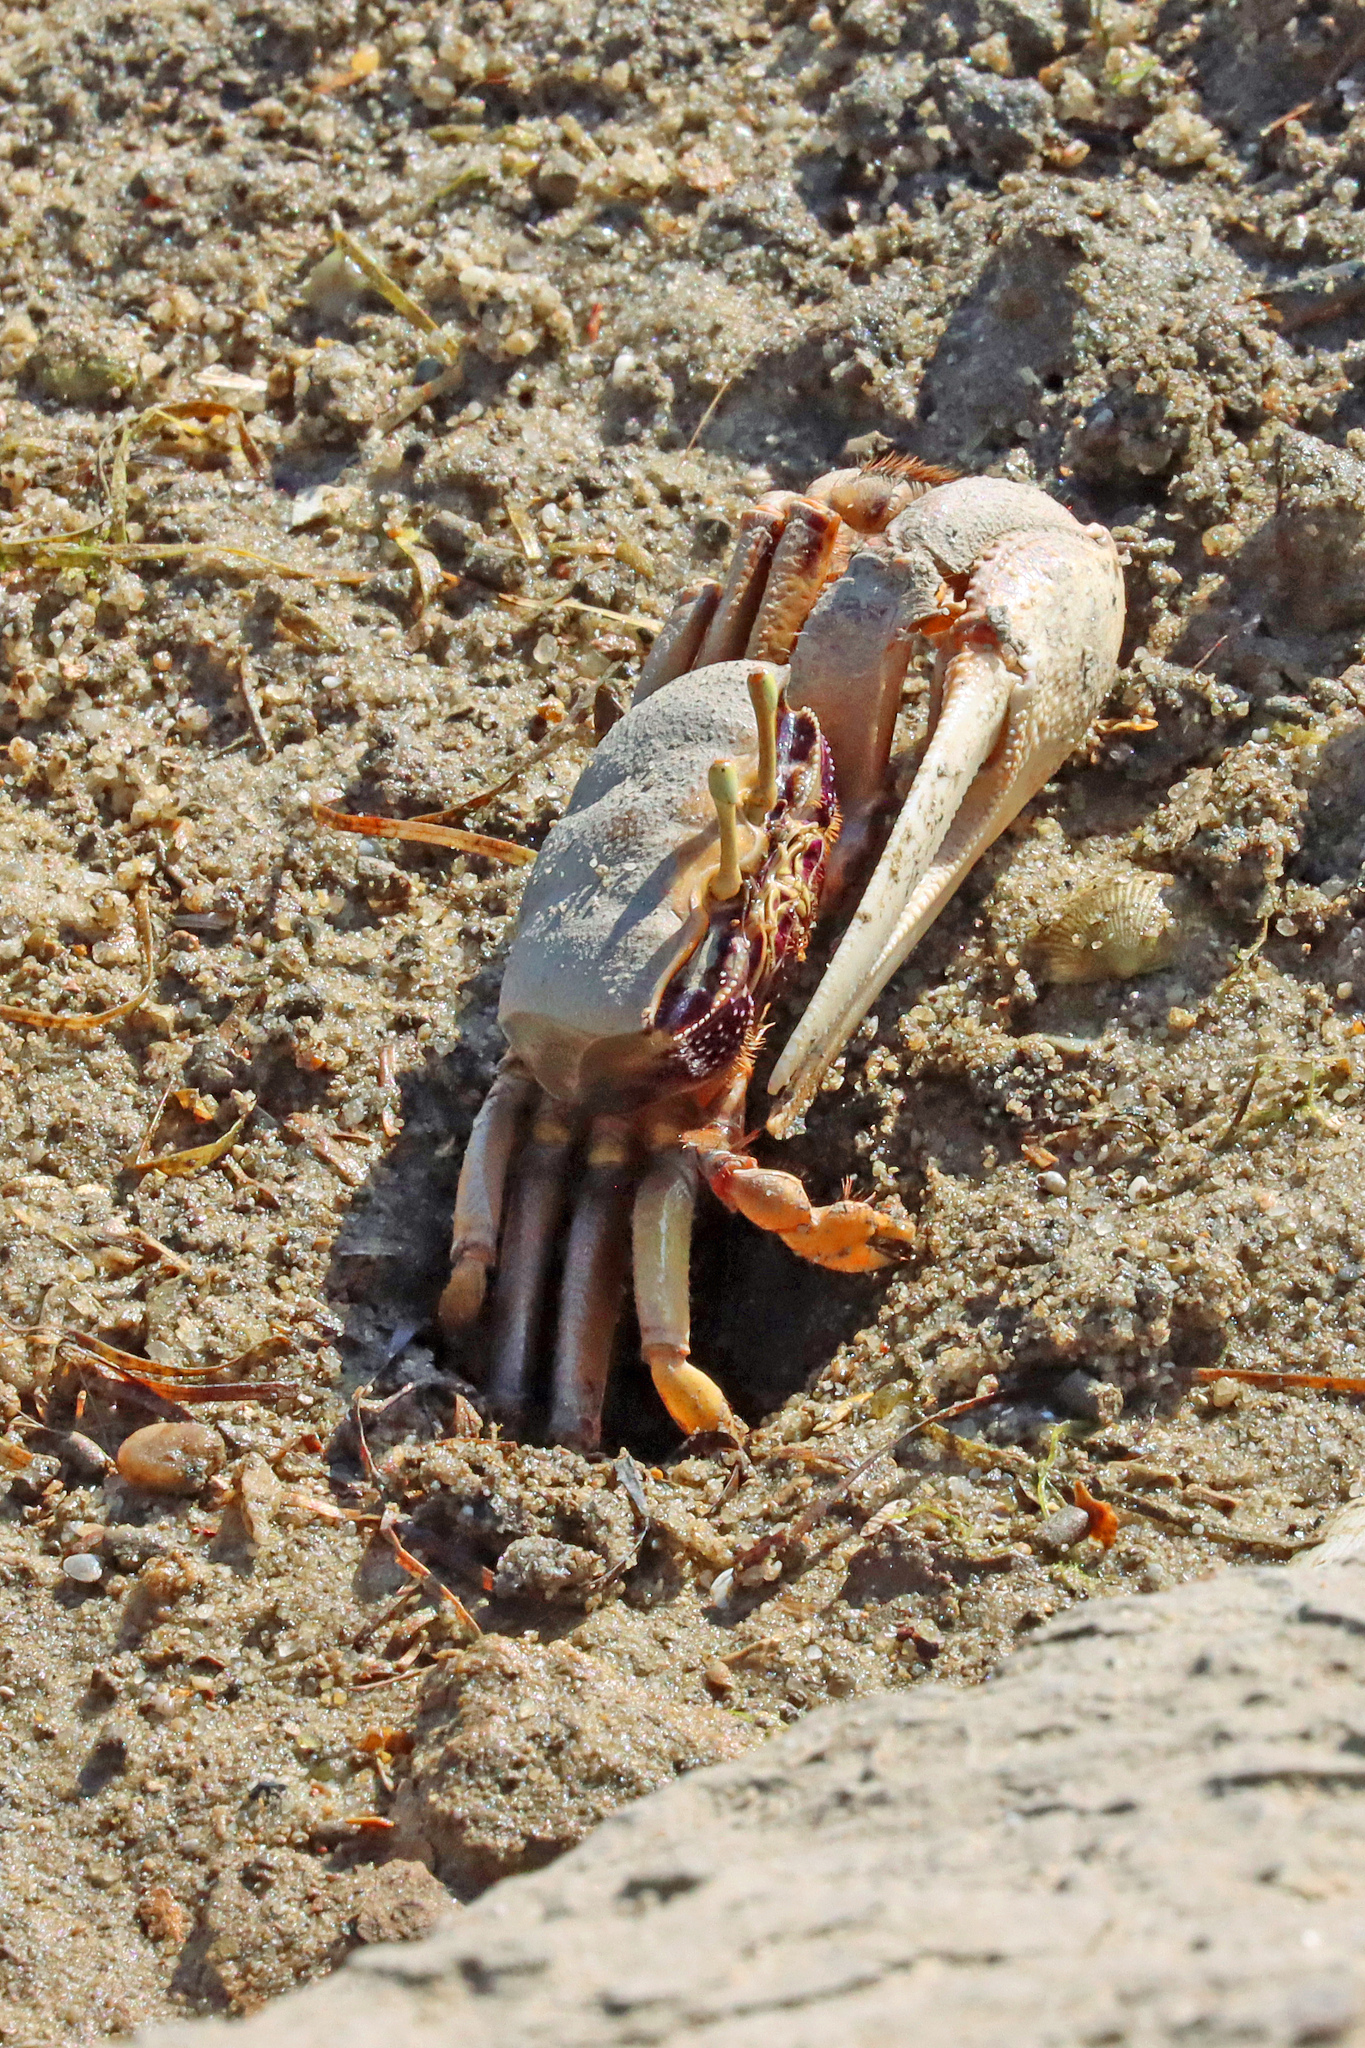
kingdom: Animalia
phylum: Arthropoda
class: Malacostraca
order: Decapoda
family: Ocypodidae
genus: Afruca
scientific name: Afruca tangeri
